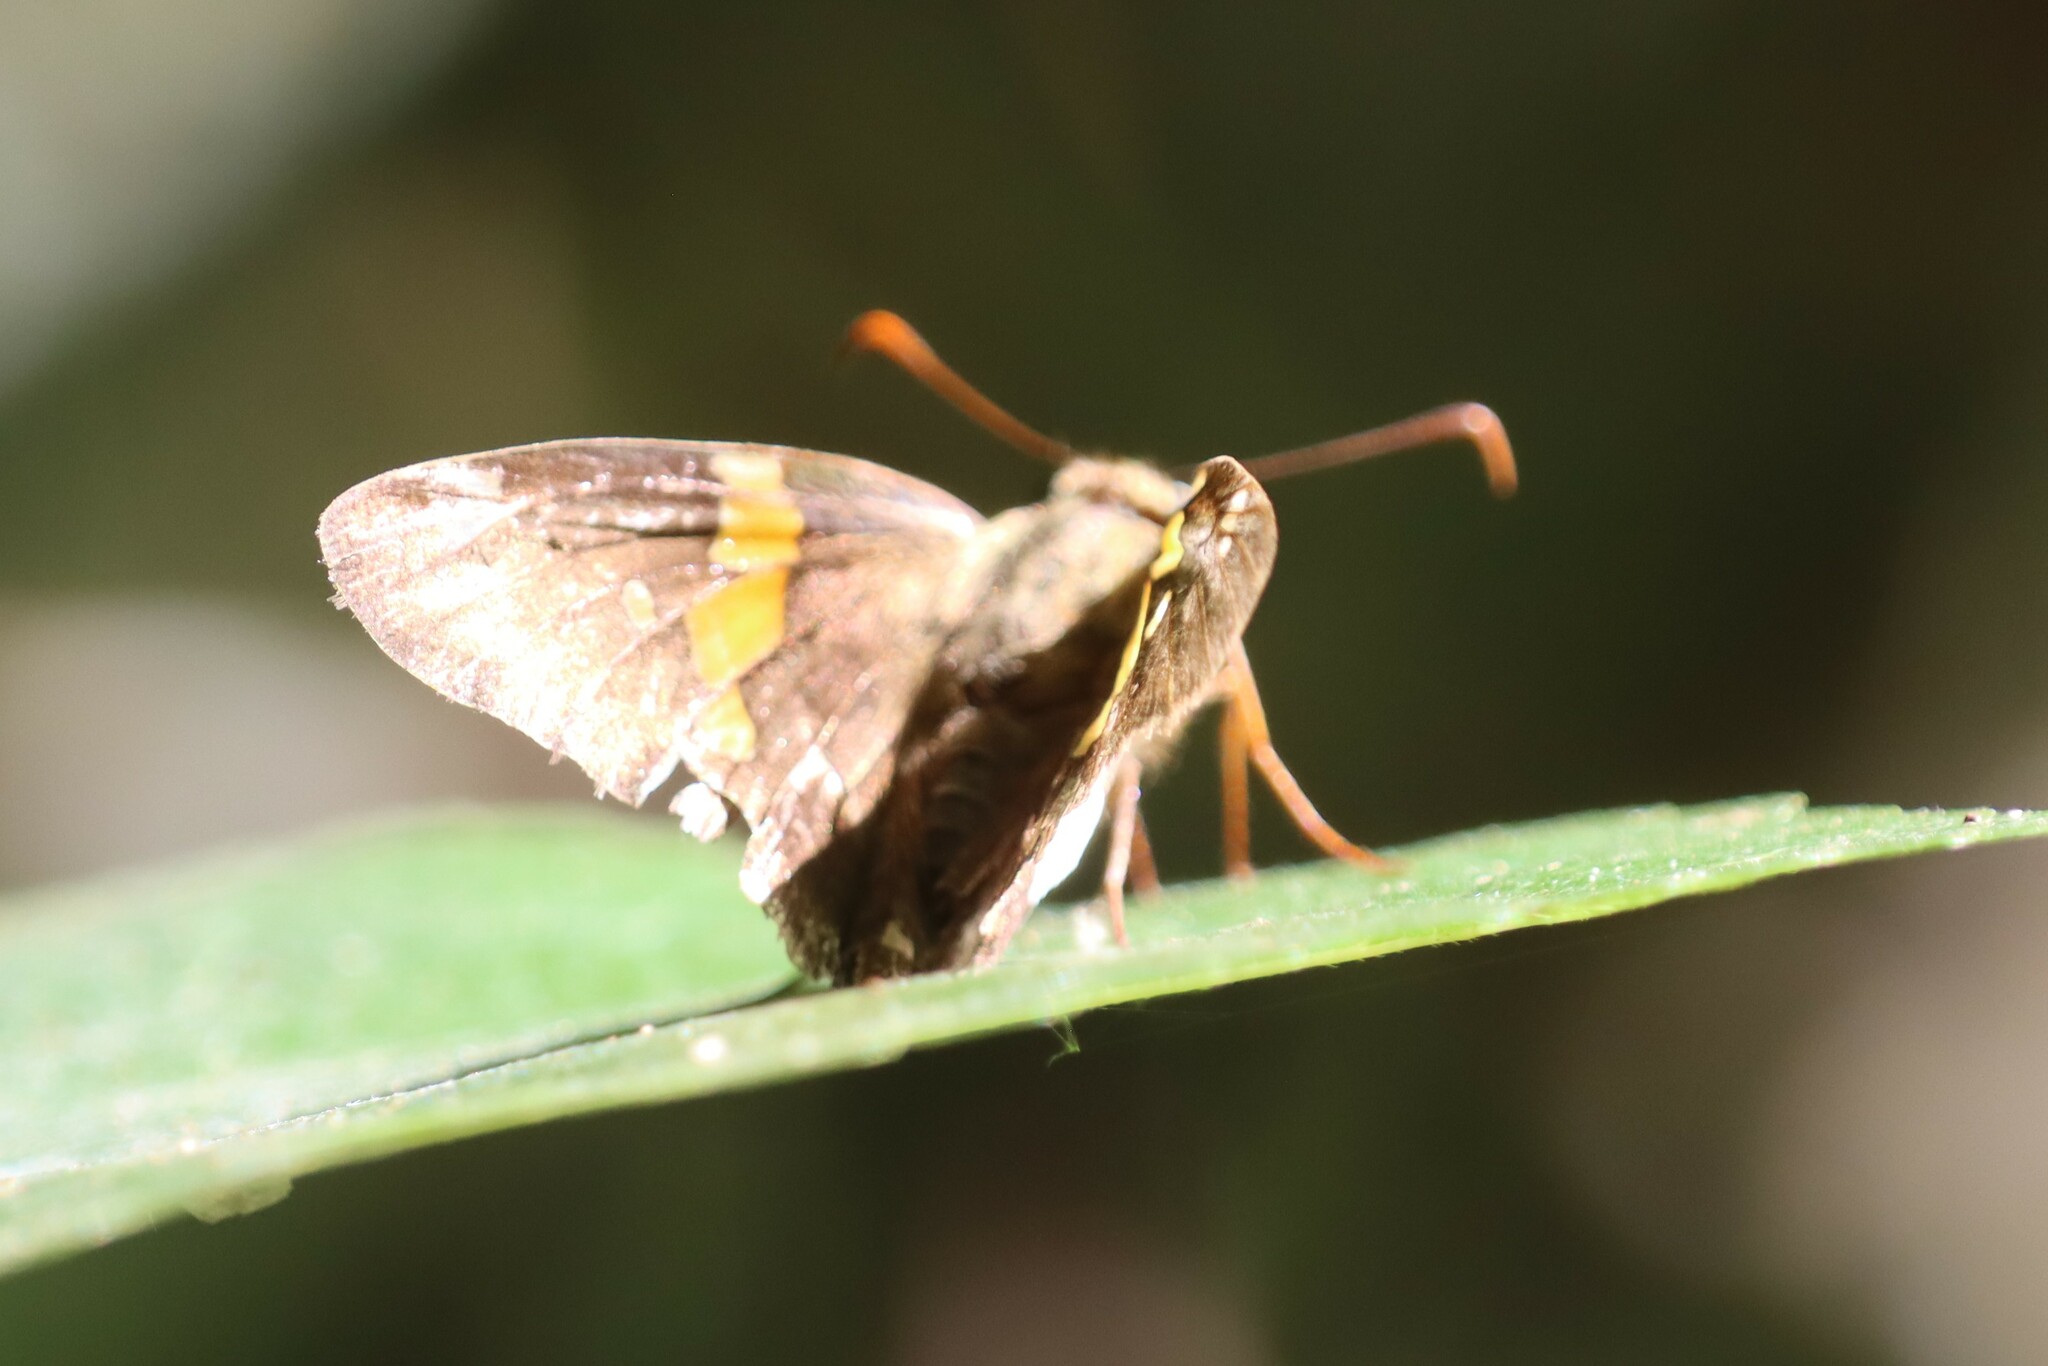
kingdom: Animalia
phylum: Arthropoda
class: Insecta
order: Lepidoptera
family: Hesperiidae
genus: Epargyreus
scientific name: Epargyreus clarus
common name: Silver-spotted skipper
